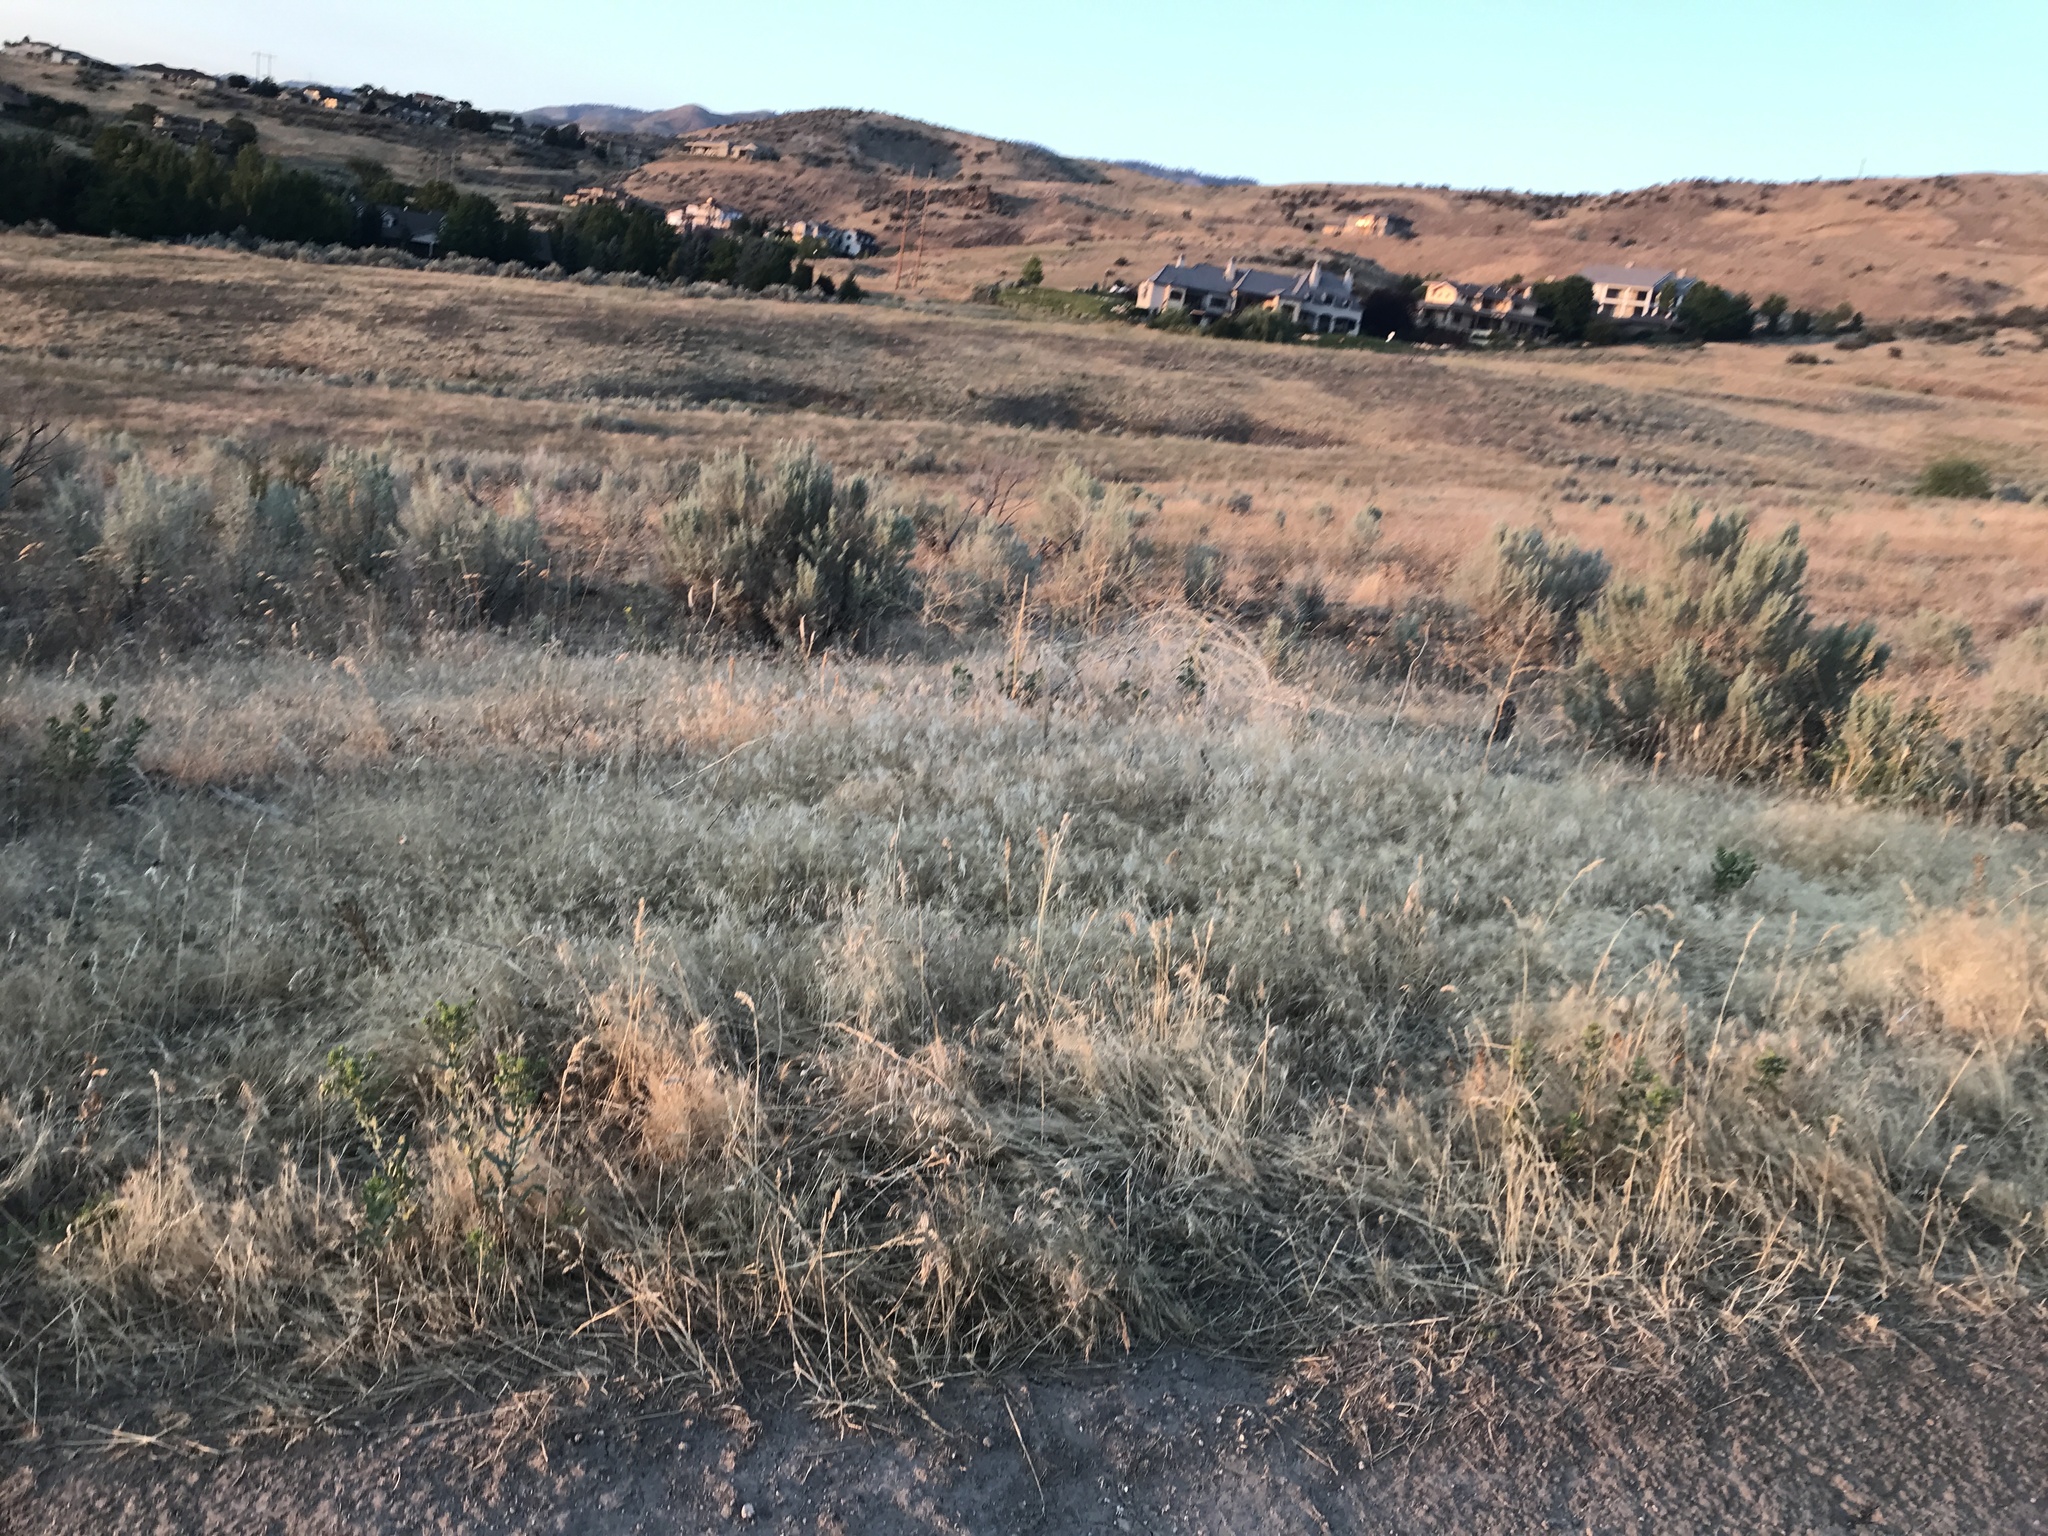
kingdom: Plantae
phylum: Tracheophyta
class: Liliopsida
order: Poales
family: Poaceae
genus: Taeniatherum
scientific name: Taeniatherum caput-medusae
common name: Medusahead
